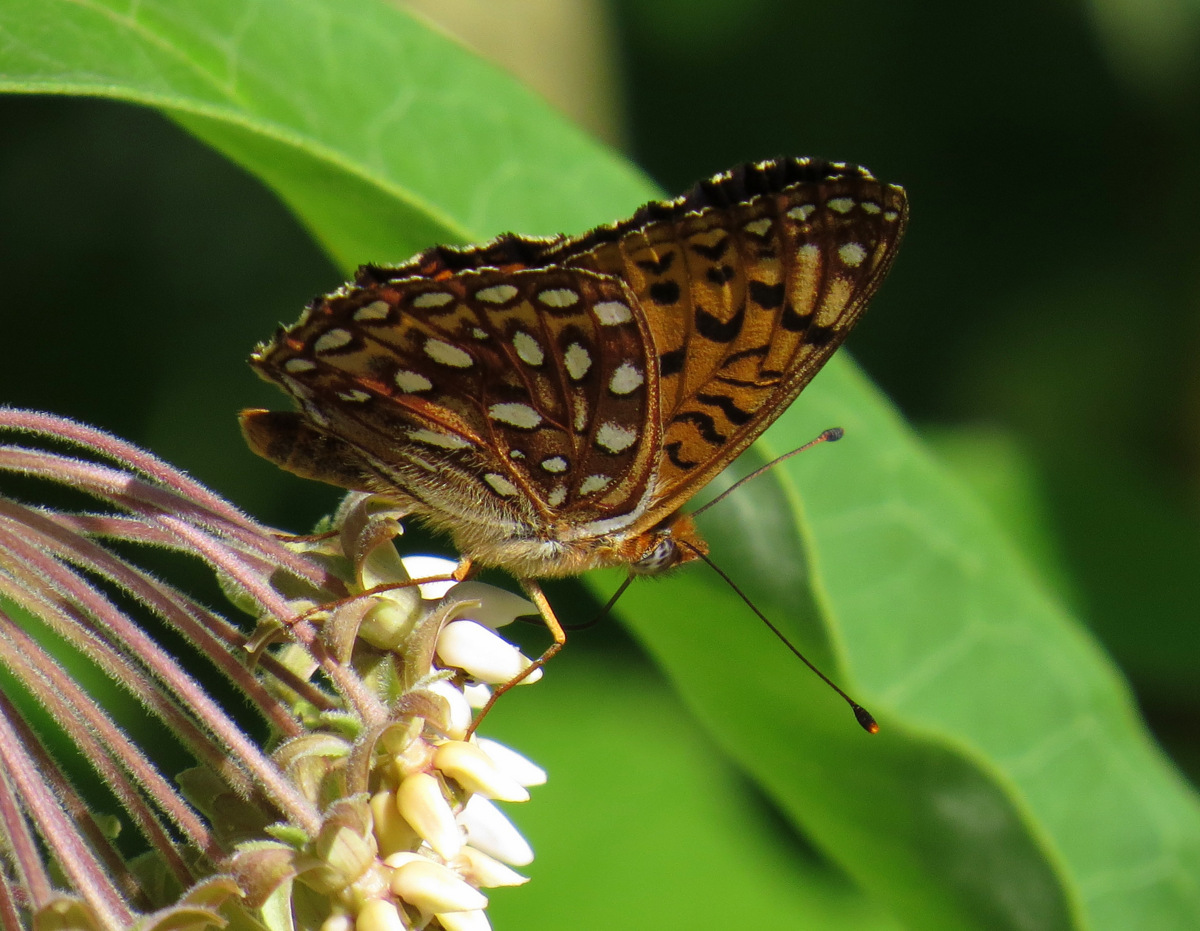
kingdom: Animalia
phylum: Arthropoda
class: Insecta
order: Lepidoptera
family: Nymphalidae
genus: Speyeria
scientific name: Speyeria atlantis
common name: Atlantis fritillary
